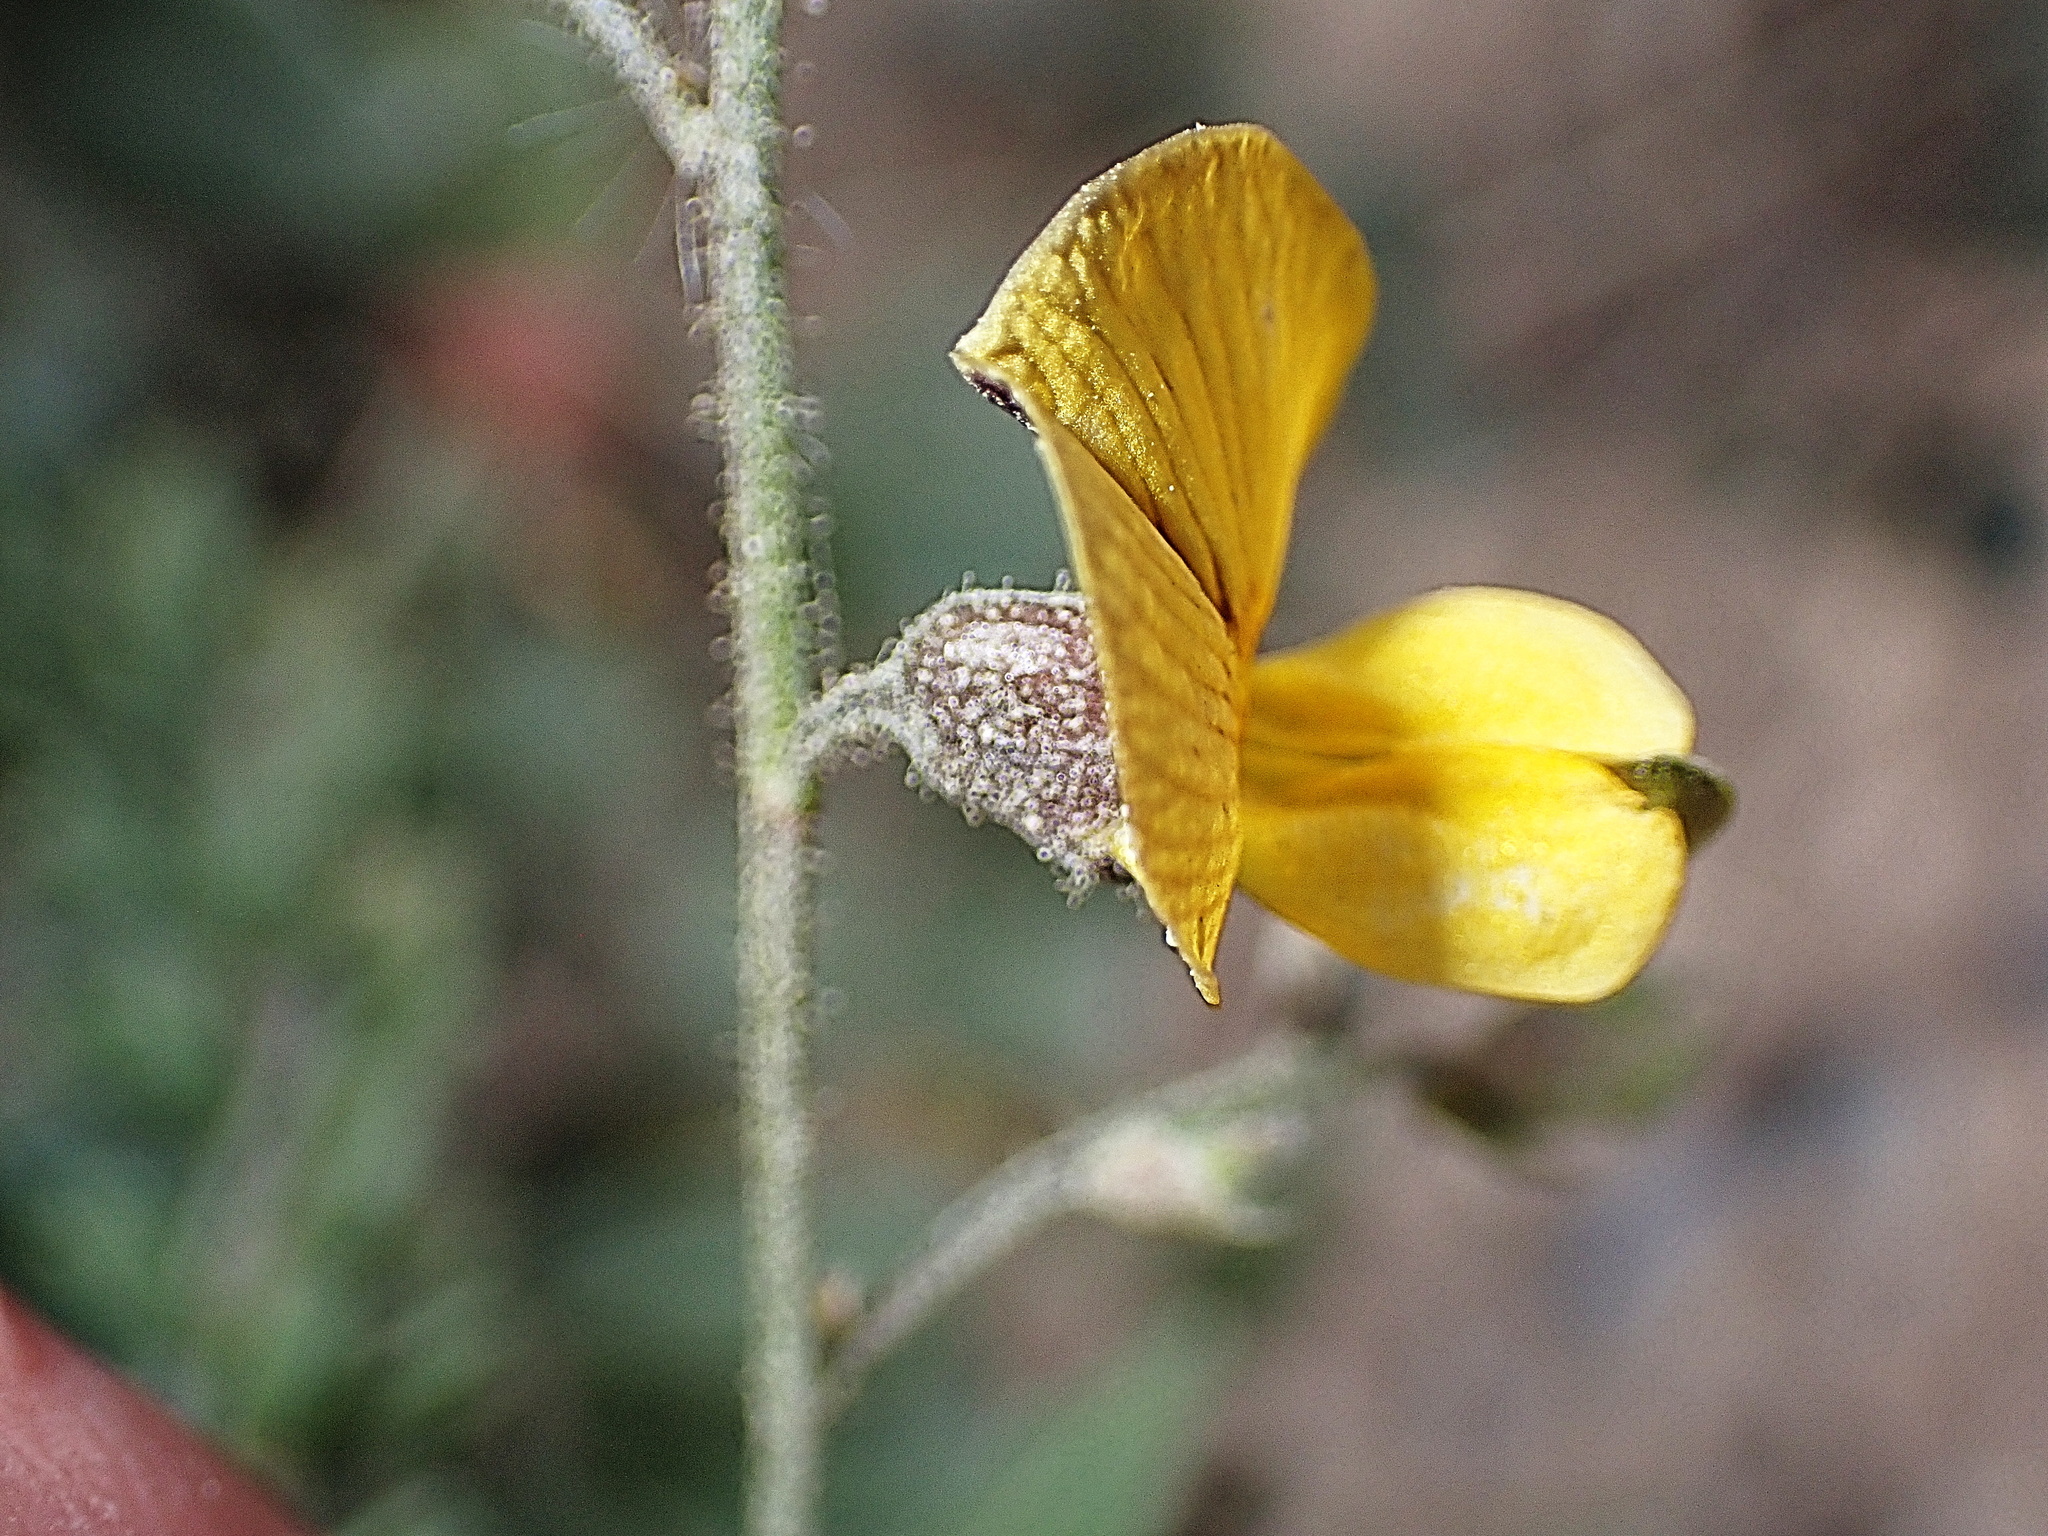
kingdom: Plantae
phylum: Tracheophyta
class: Magnoliopsida
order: Fabales
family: Fabaceae
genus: Rhynchosia
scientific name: Rhynchosia caribaea
